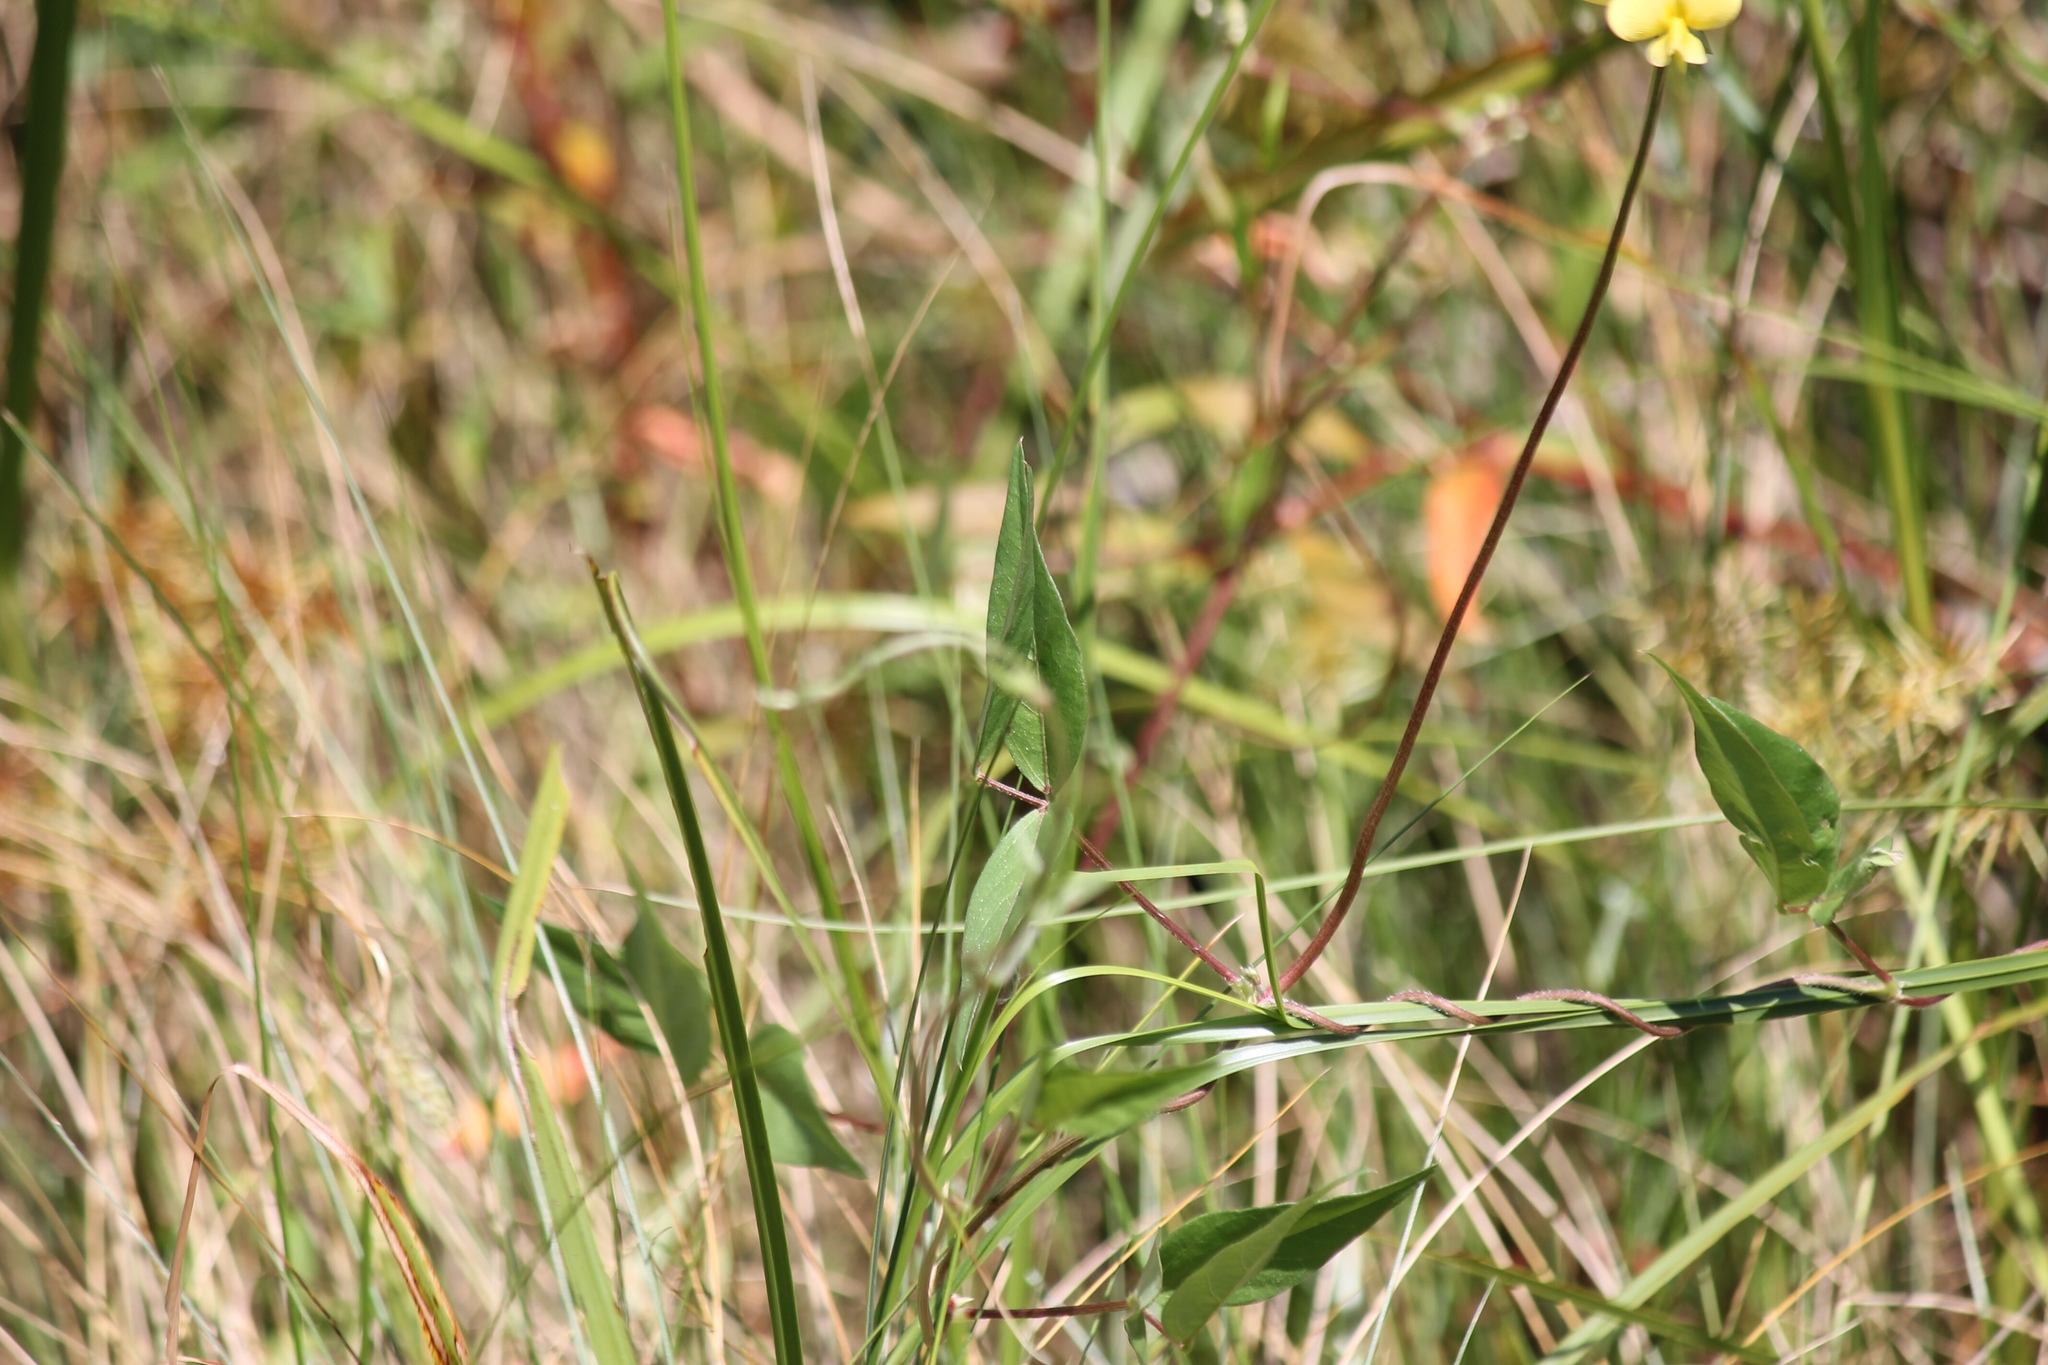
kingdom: Plantae
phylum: Tracheophyta
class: Magnoliopsida
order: Fabales
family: Fabaceae
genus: Vigna
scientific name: Vigna luteola
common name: Hairypod cowpea
